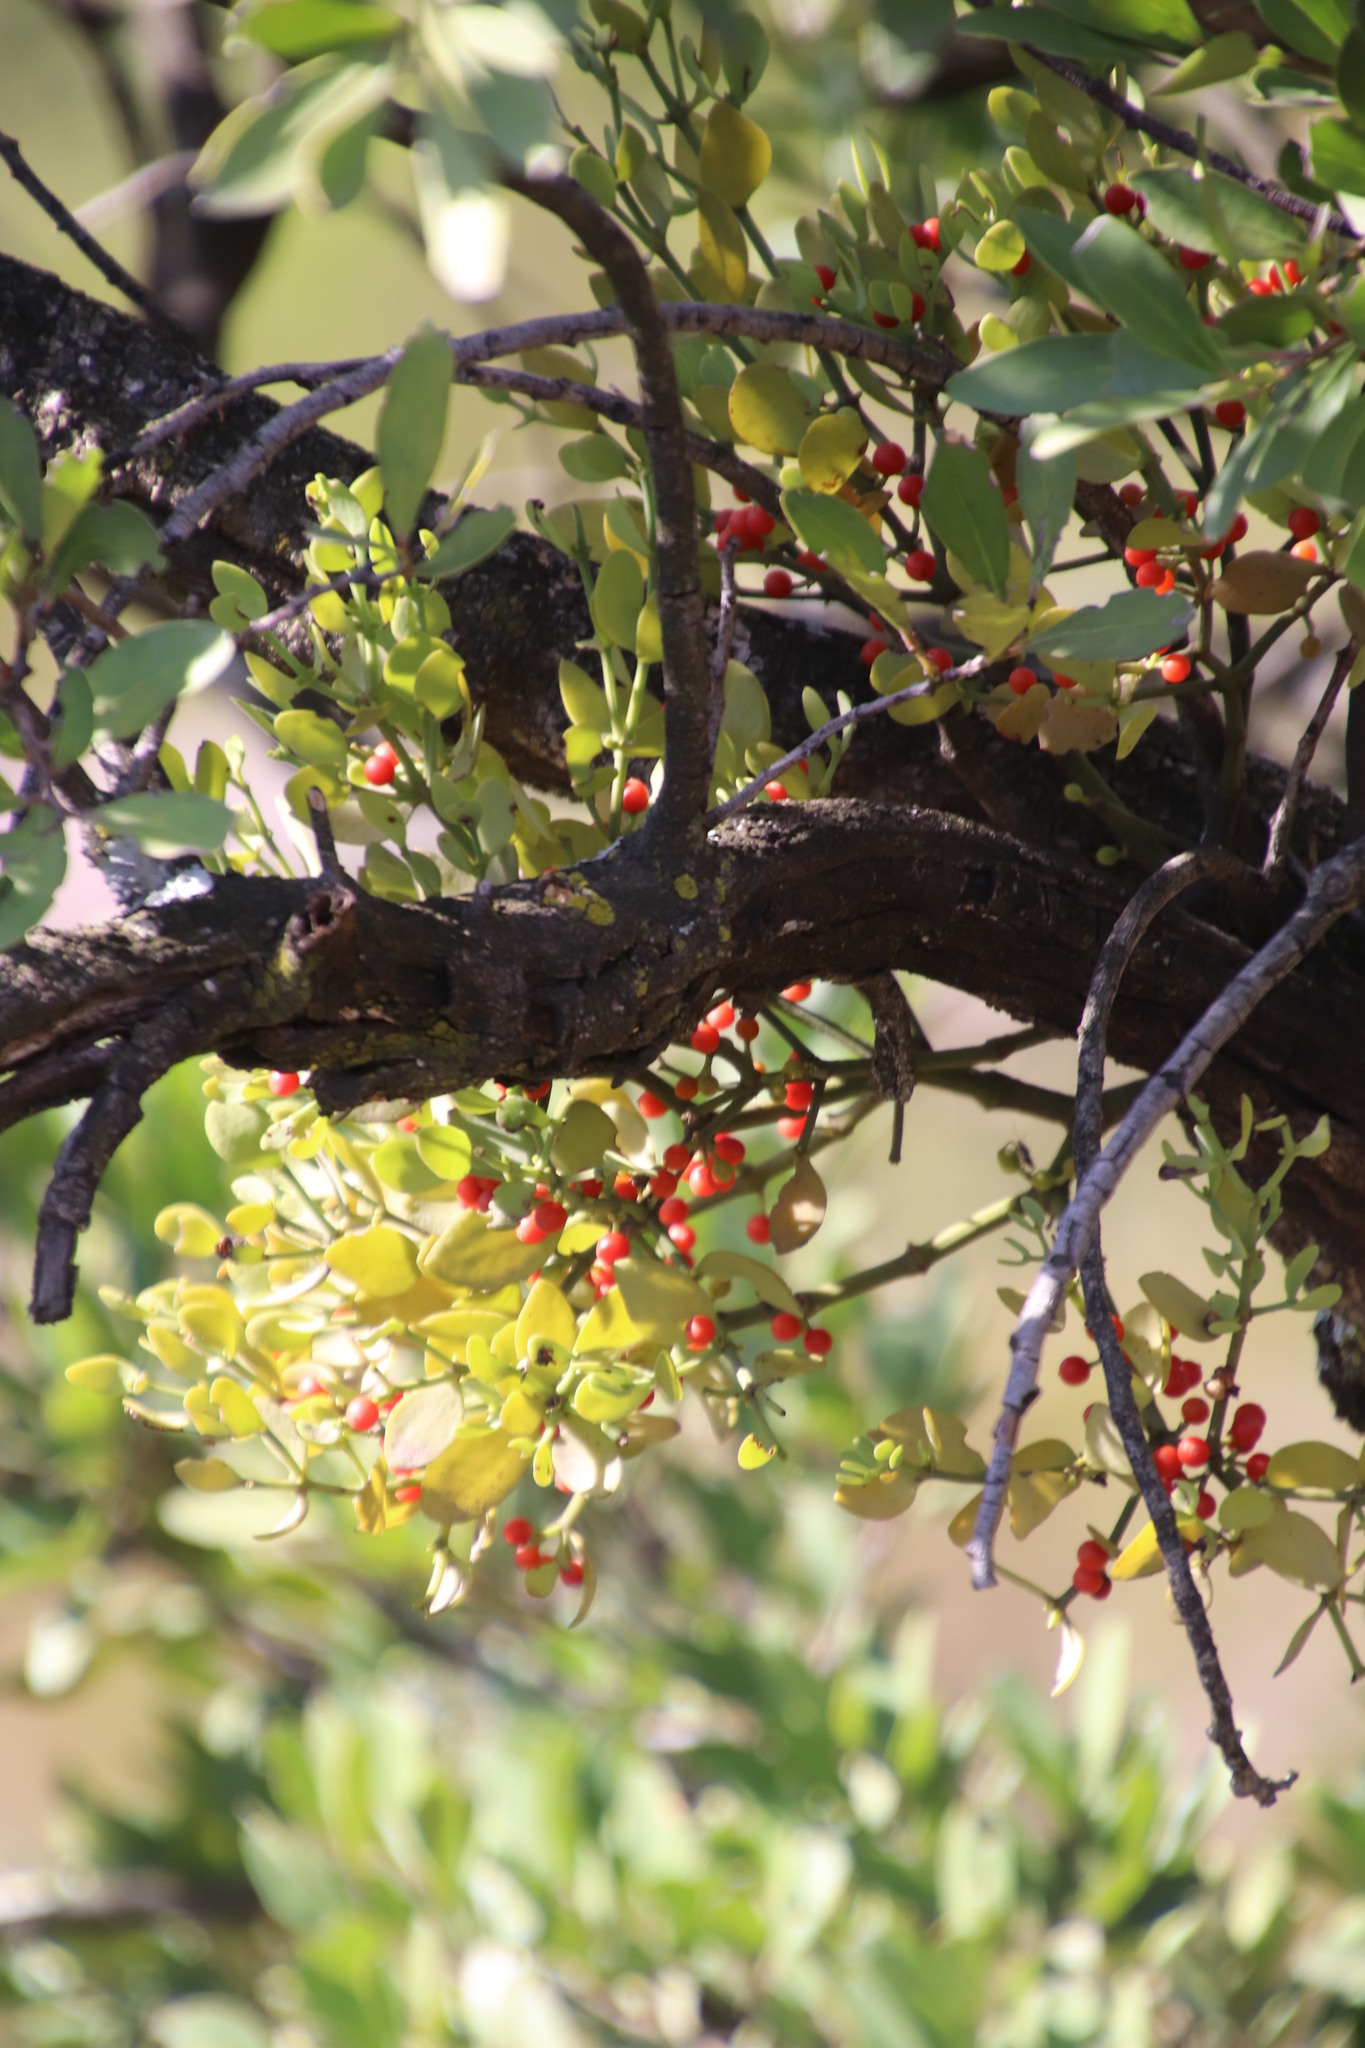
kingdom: Plantae
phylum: Tracheophyta
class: Magnoliopsida
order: Santalales
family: Viscaceae
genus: Viscum
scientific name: Viscum rotundifolium
